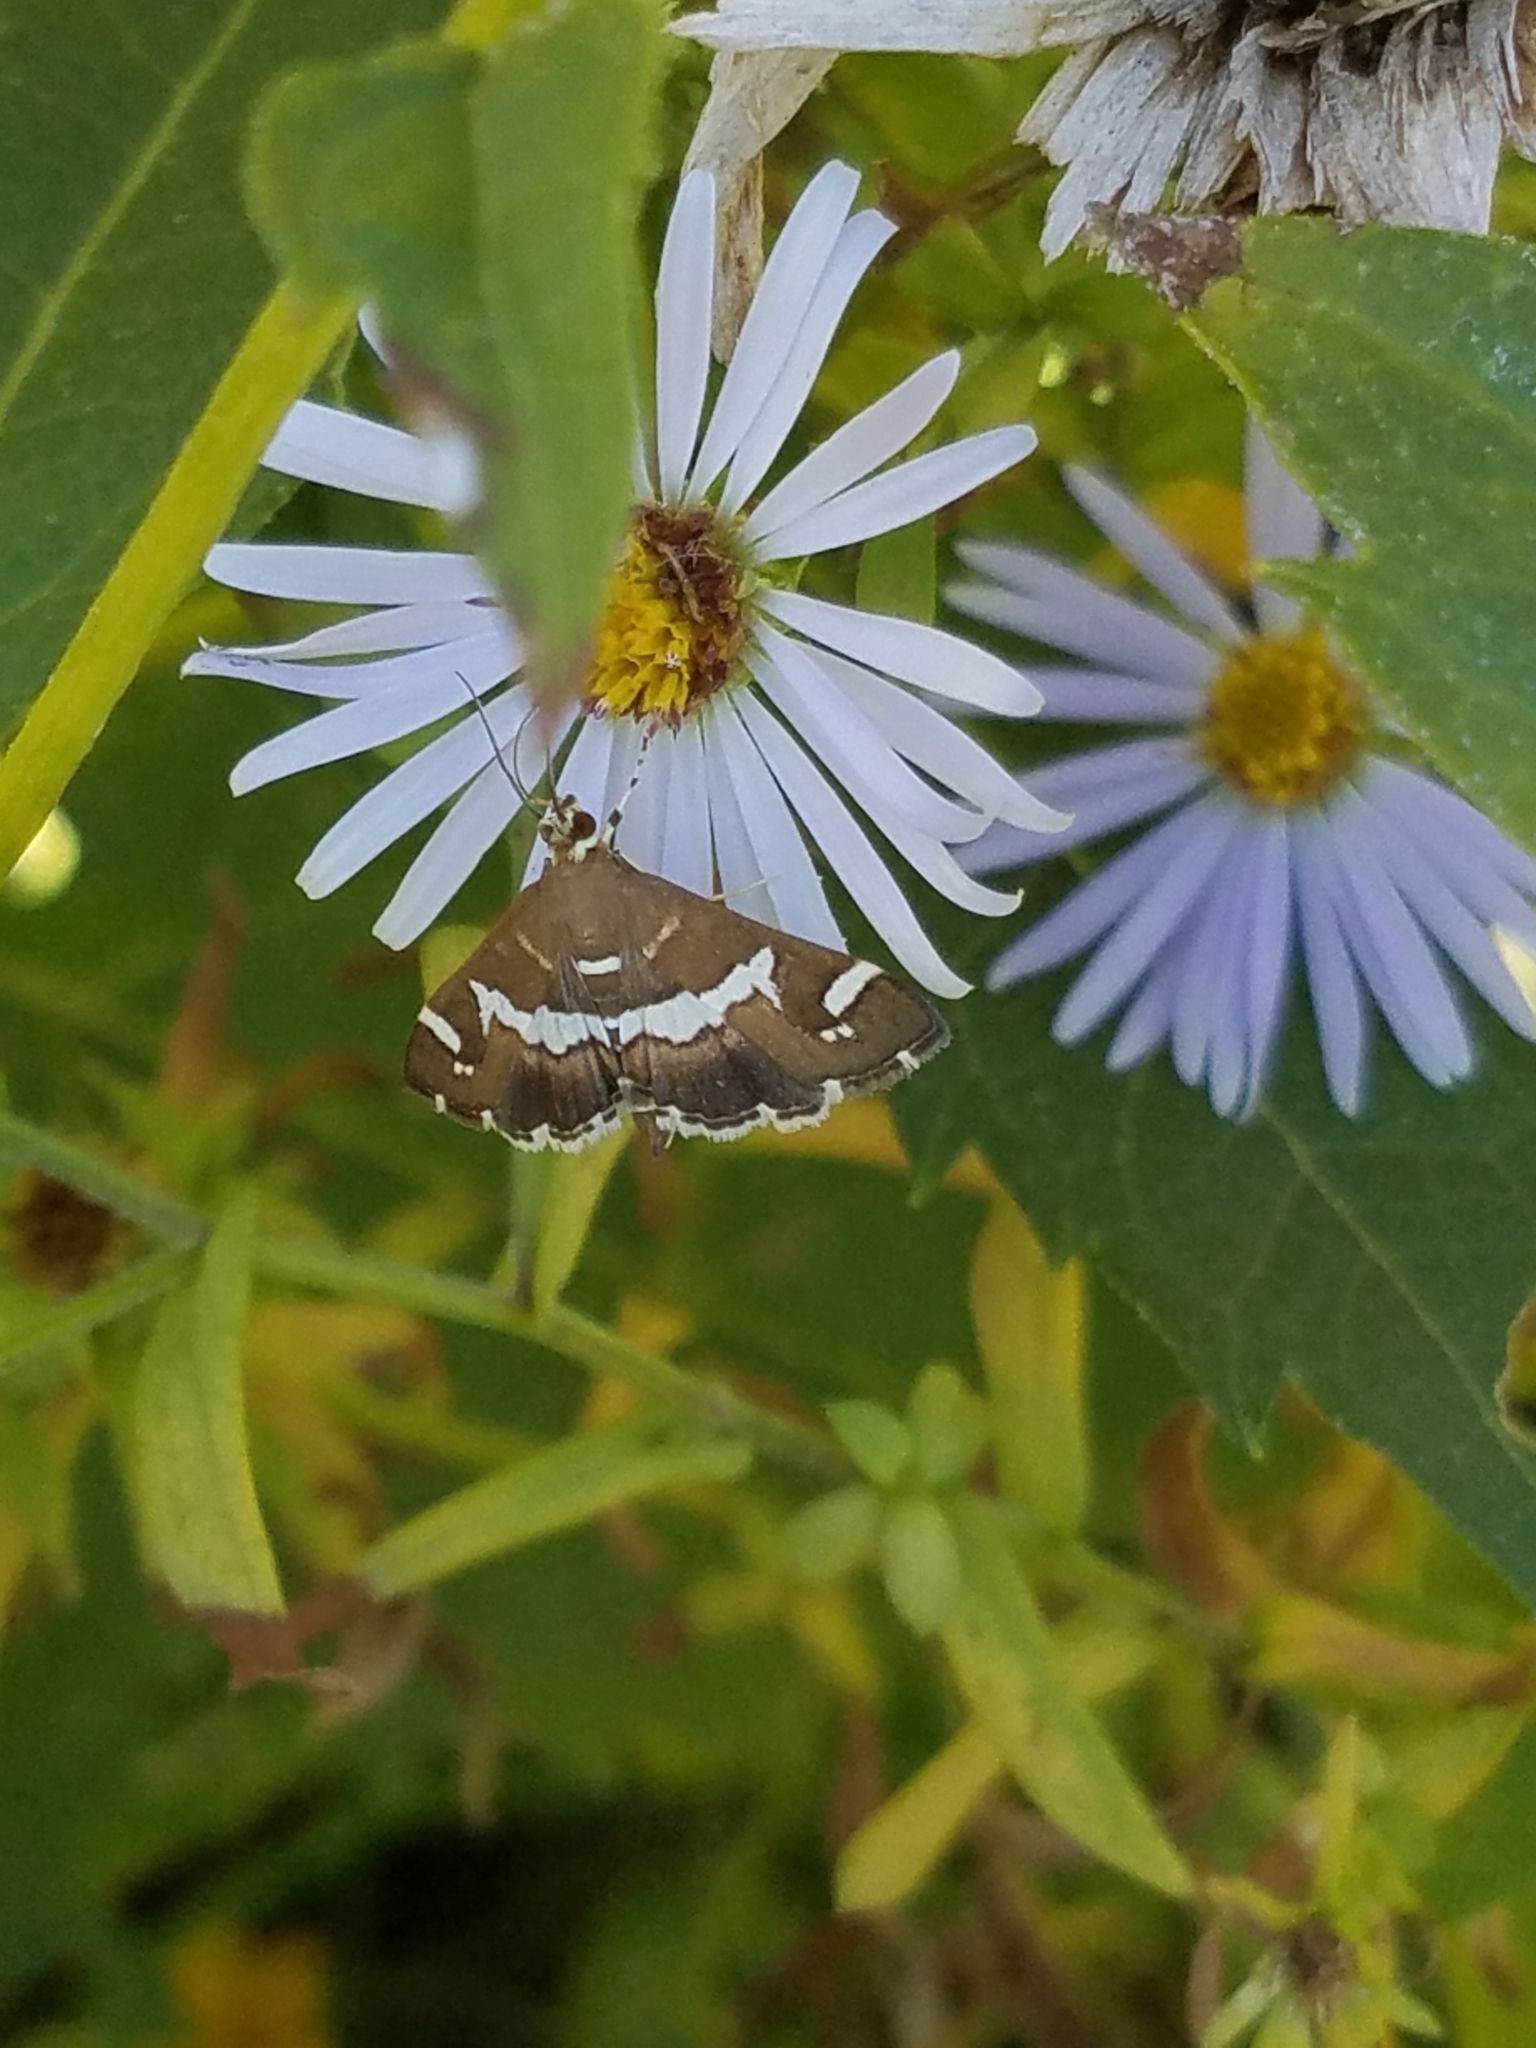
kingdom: Animalia
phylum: Arthropoda
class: Insecta
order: Lepidoptera
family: Crambidae
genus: Spoladea
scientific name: Spoladea recurvalis
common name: Beet webworm moth
